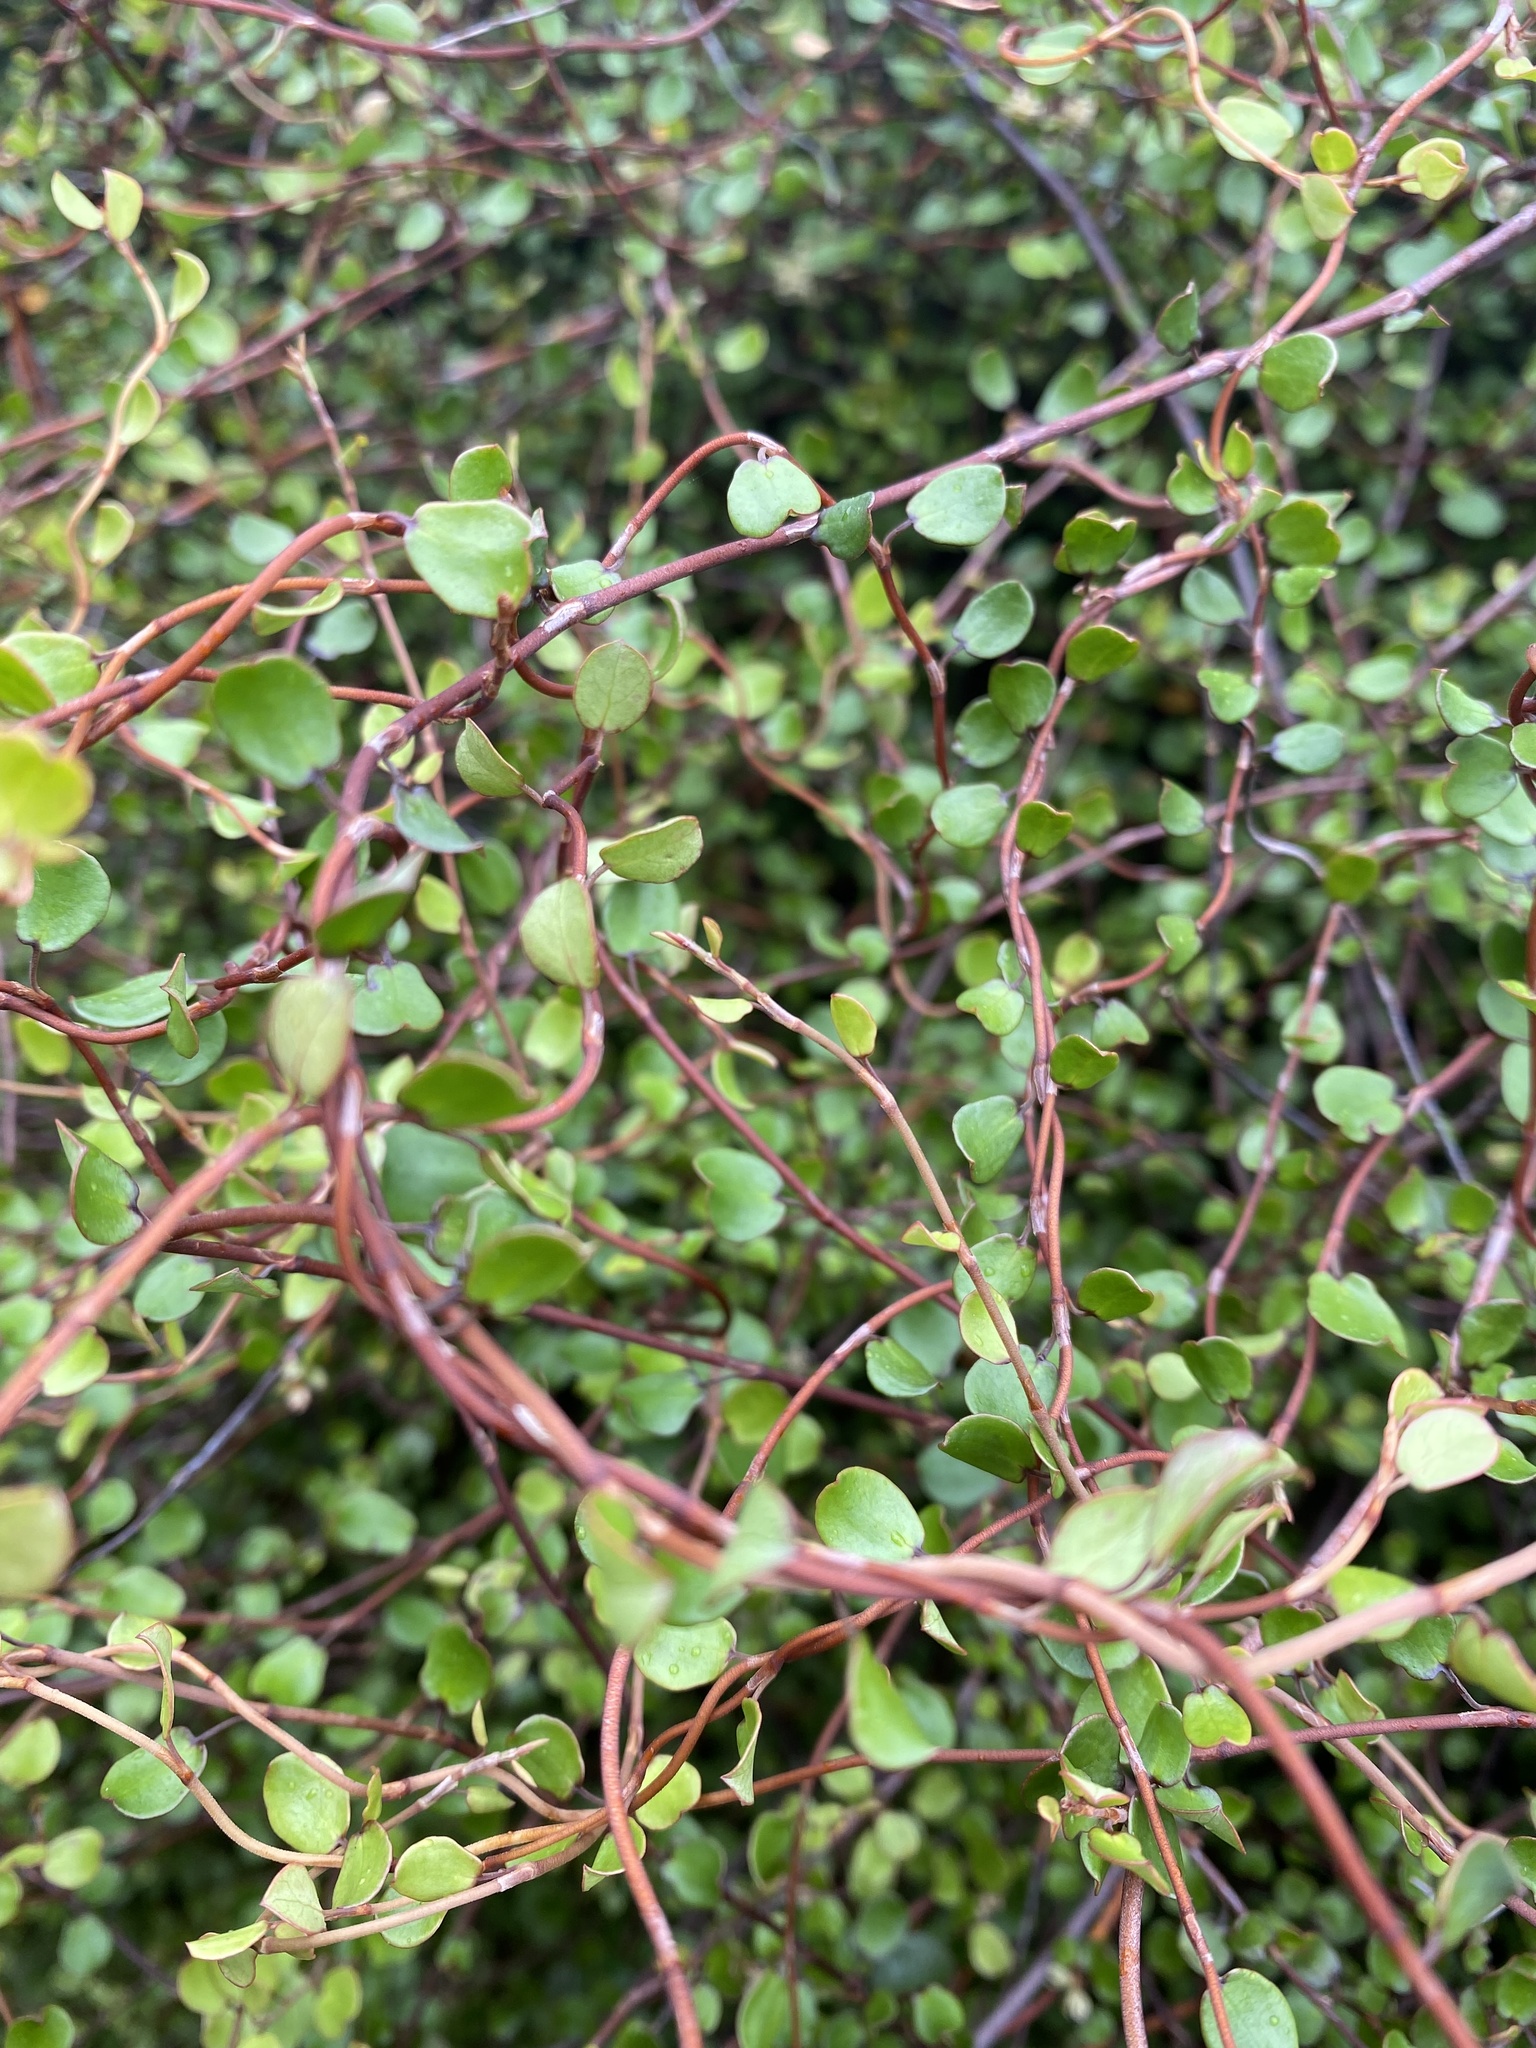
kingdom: Plantae
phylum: Tracheophyta
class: Magnoliopsida
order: Caryophyllales
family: Polygonaceae
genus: Muehlenbeckia
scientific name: Muehlenbeckia complexa
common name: Wireplant
